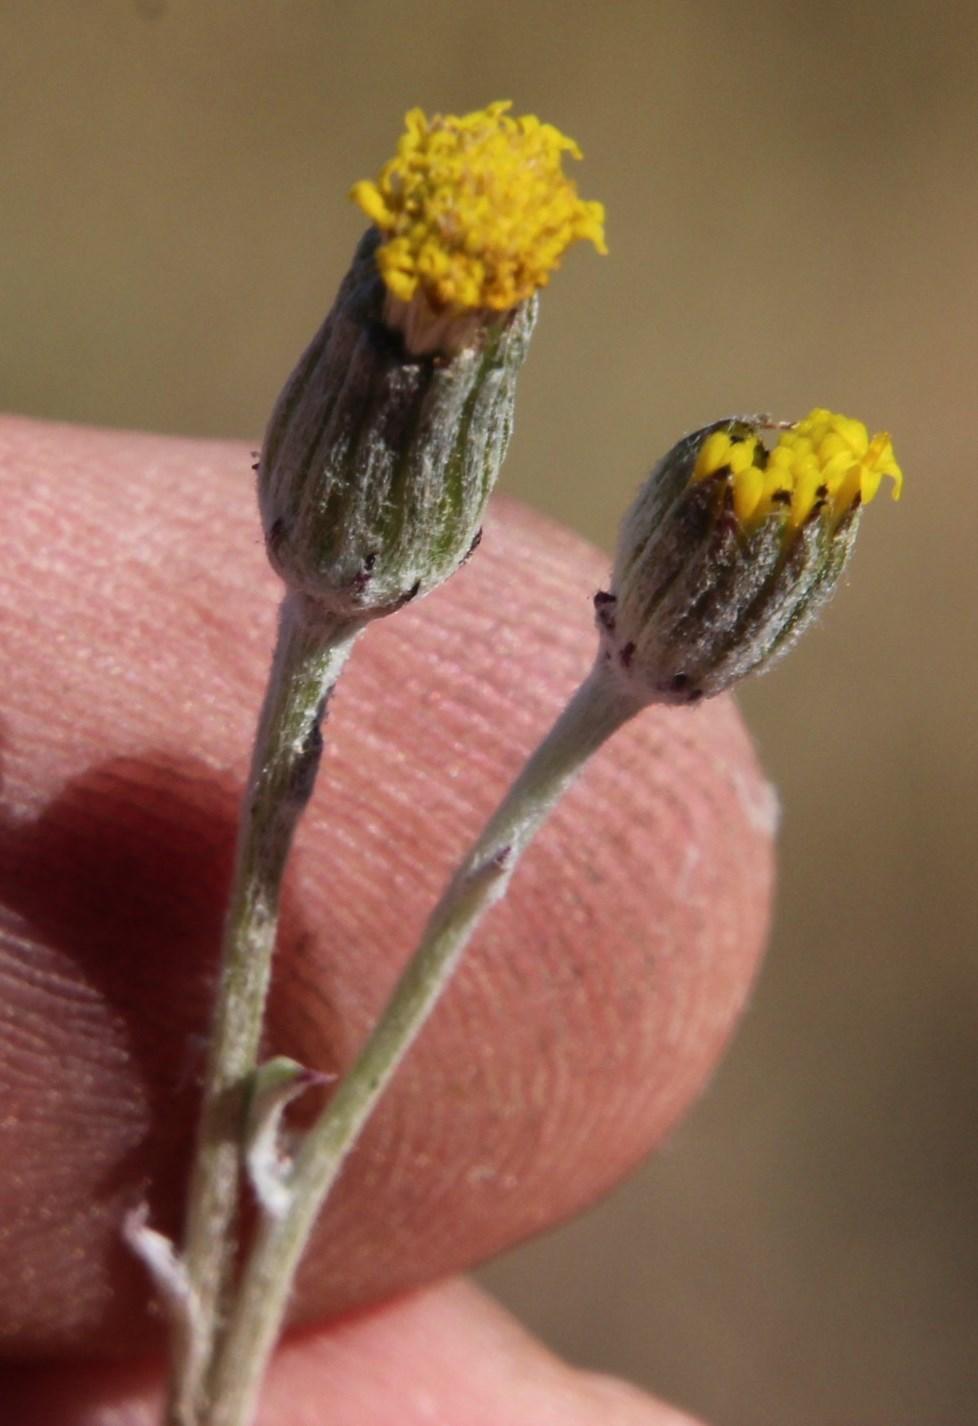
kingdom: Plantae
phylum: Tracheophyta
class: Magnoliopsida
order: Asterales
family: Asteraceae
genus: Senecio
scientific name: Senecio niveus
